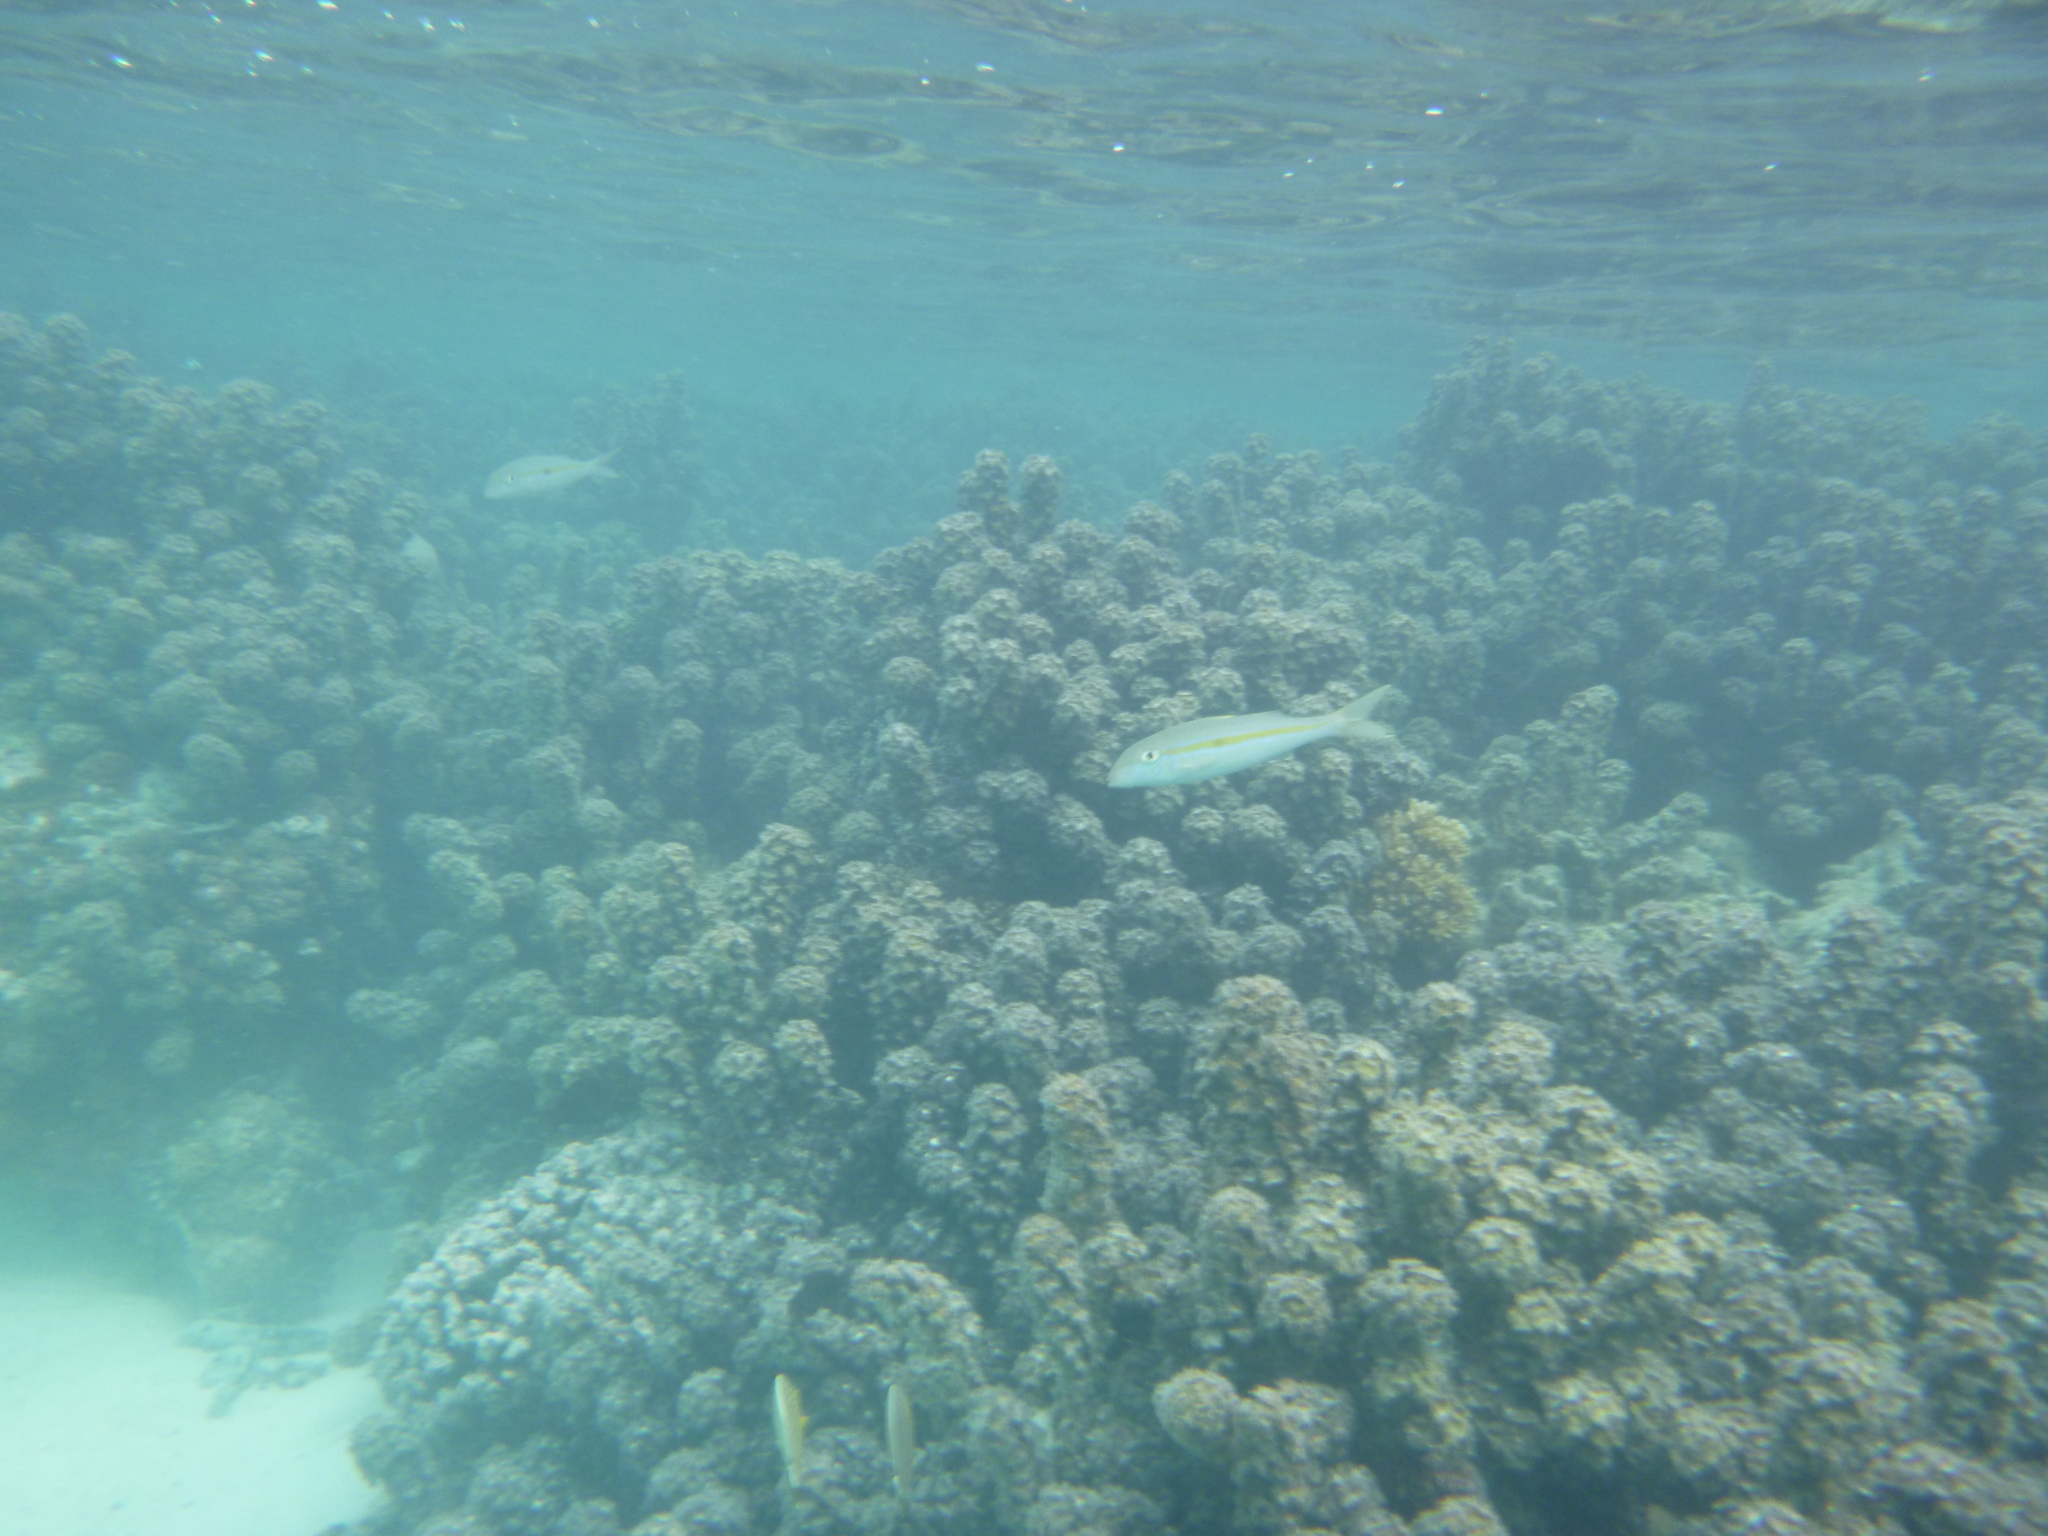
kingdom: Animalia
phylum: Chordata
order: Perciformes
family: Mullidae
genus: Mulloidichthys
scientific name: Mulloidichthys flavolineatus
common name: Yellowstripe goatfish
